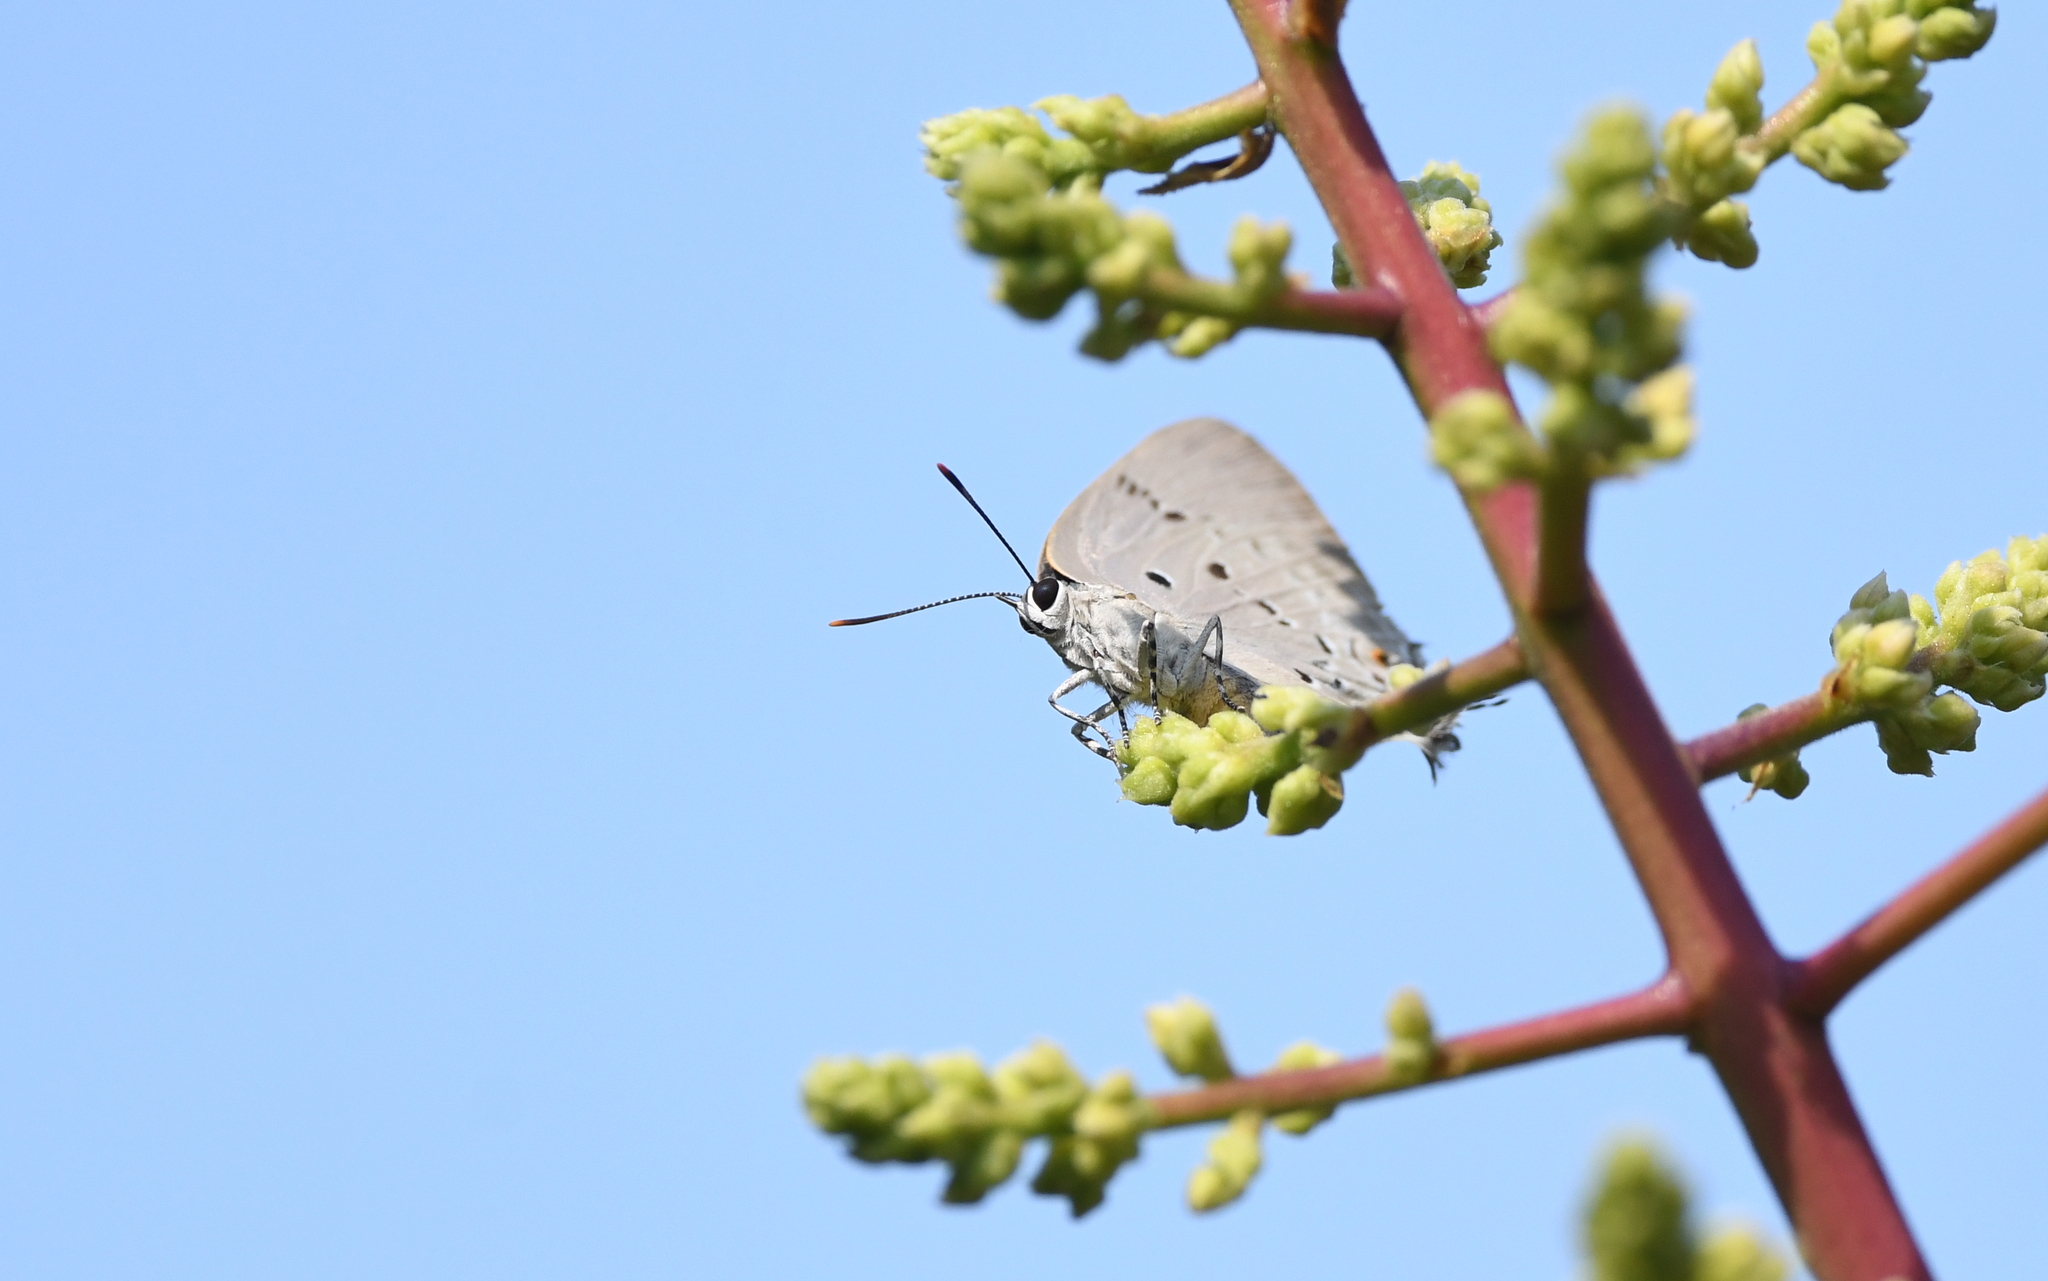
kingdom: Animalia
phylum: Arthropoda
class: Insecta
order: Lepidoptera
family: Lycaenidae
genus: Parrhasius
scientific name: Parrhasius polibetes
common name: Black-spot hairstreak
